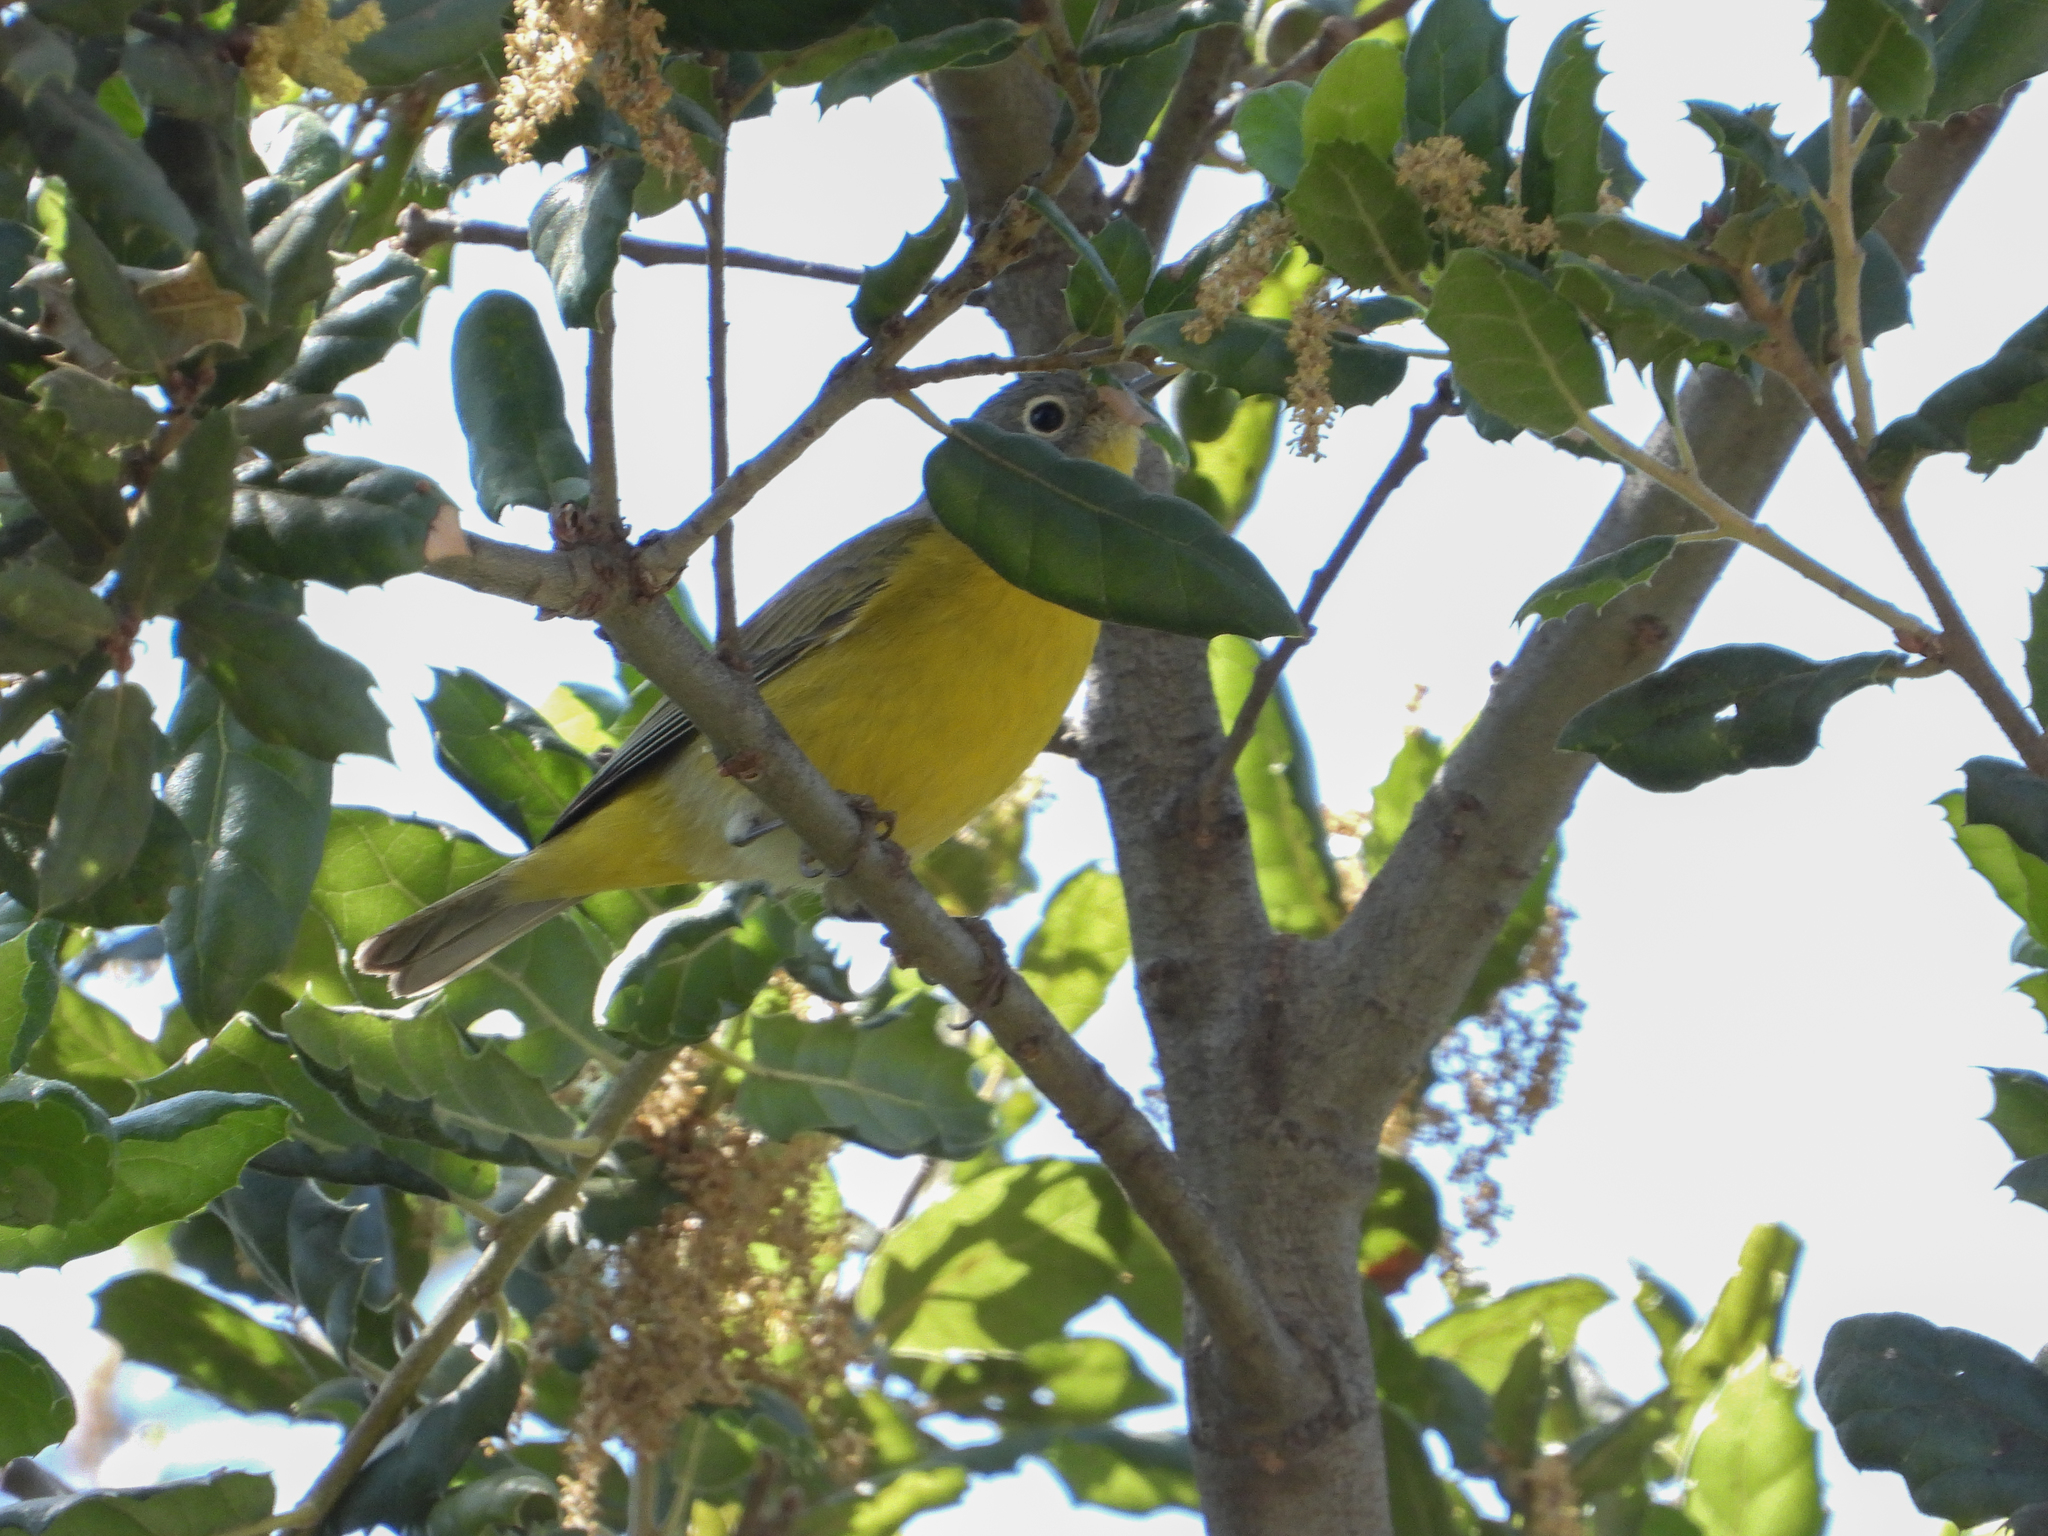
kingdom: Animalia
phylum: Chordata
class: Aves
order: Passeriformes
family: Parulidae
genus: Leiothlypis
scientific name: Leiothlypis ruficapilla
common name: Nashville warbler
